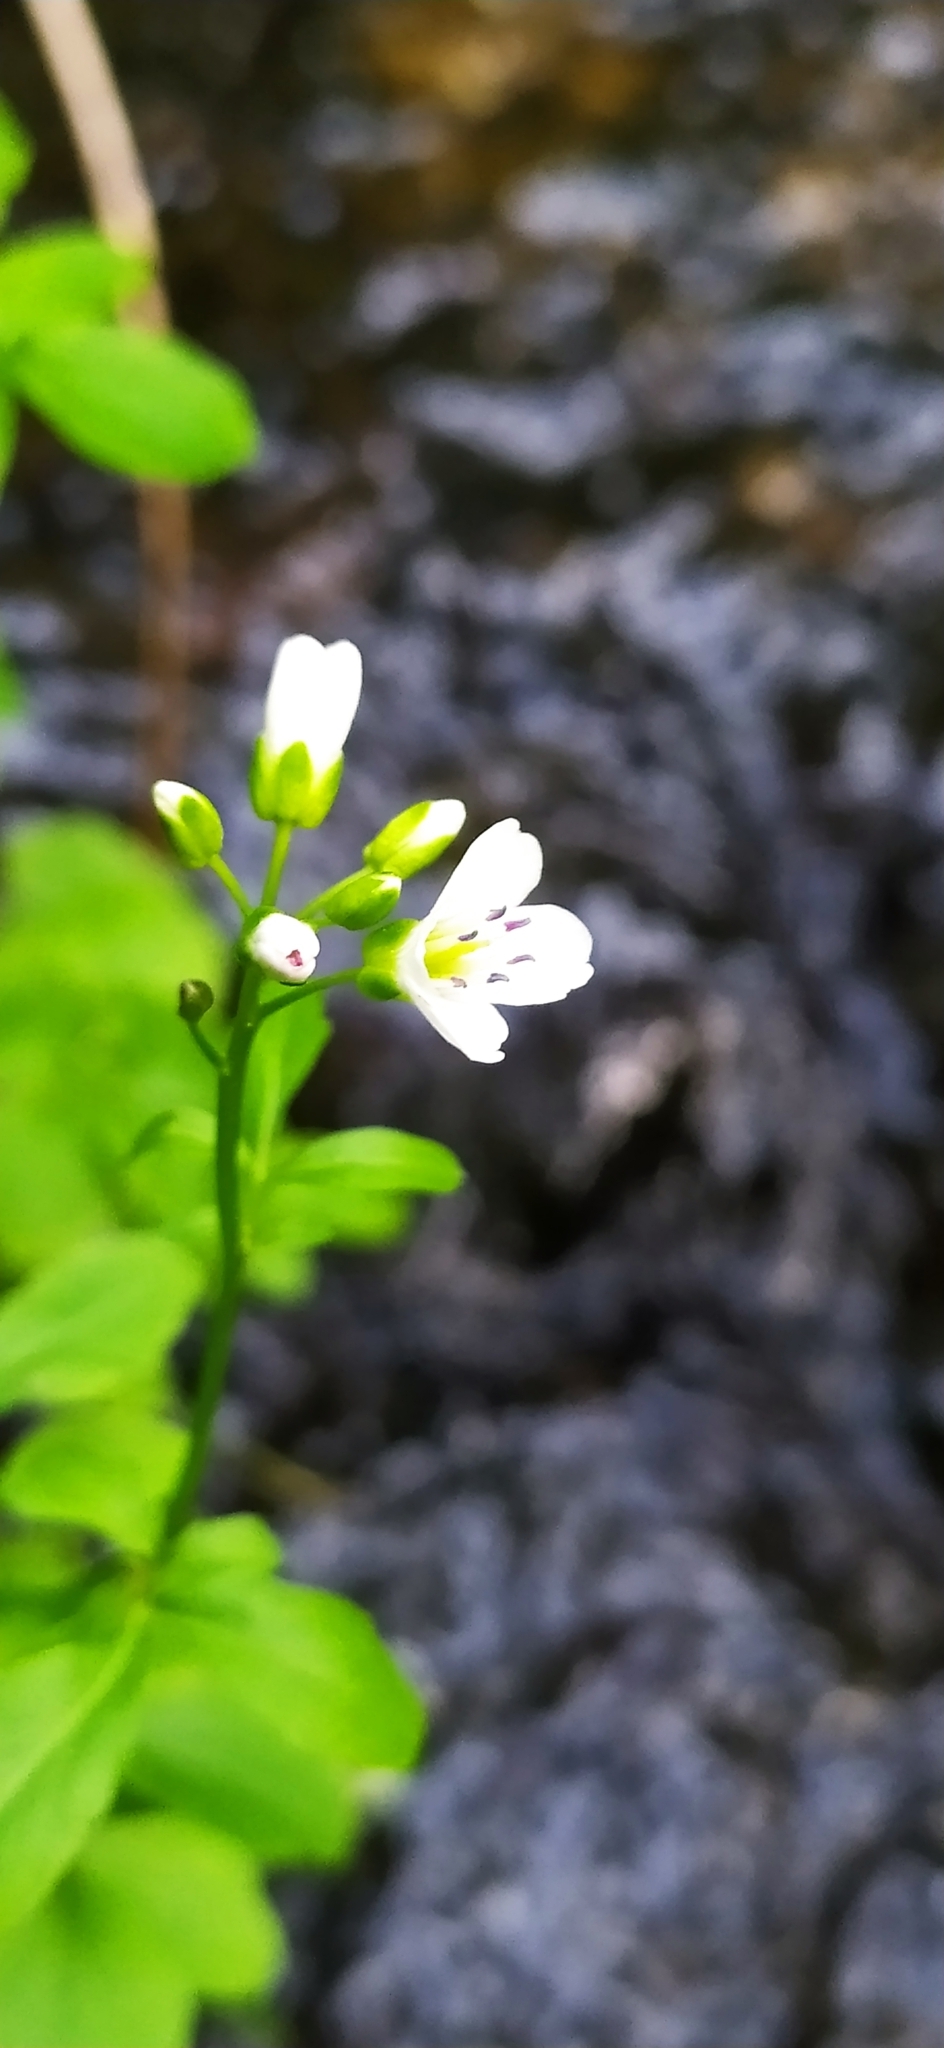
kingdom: Plantae
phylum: Tracheophyta
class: Magnoliopsida
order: Brassicales
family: Brassicaceae
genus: Cardamine
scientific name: Cardamine amara
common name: Large bitter-cress
